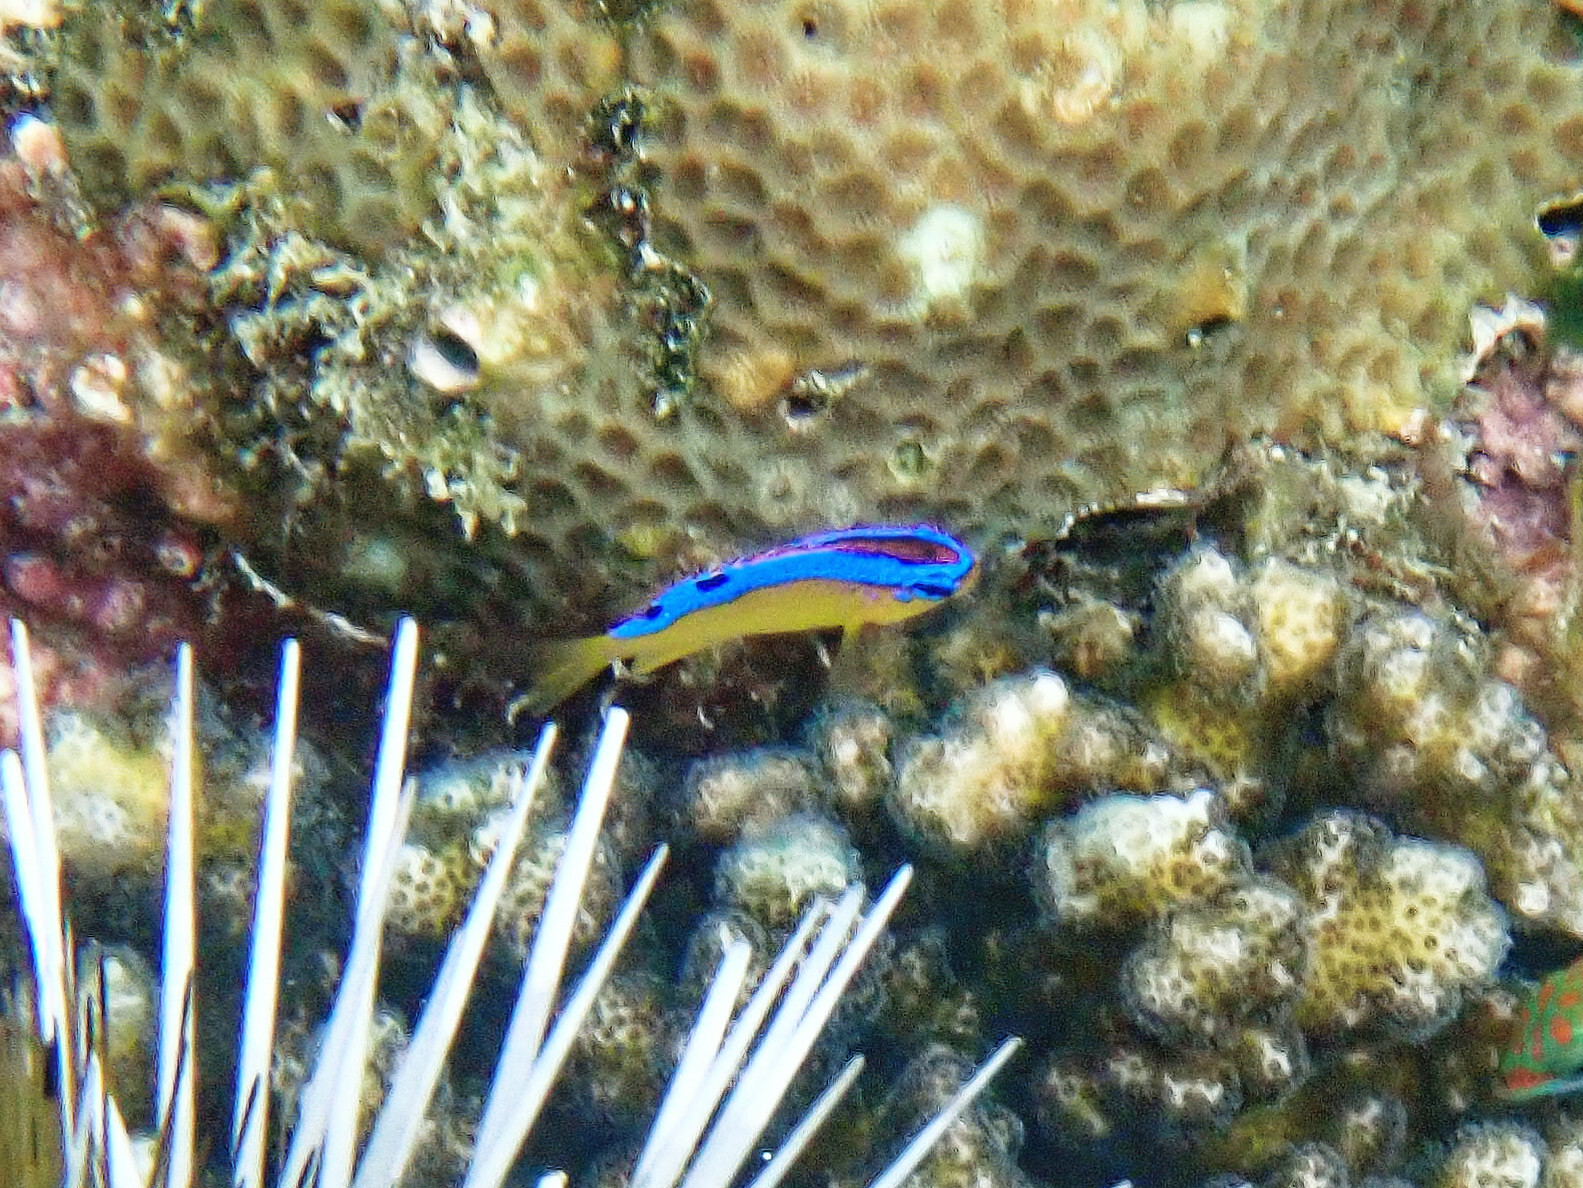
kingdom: Animalia
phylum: Chordata
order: Perciformes
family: Pomacentridae
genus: Chrysiptera
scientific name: Chrysiptera brownriggii
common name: Surge demoiselle
